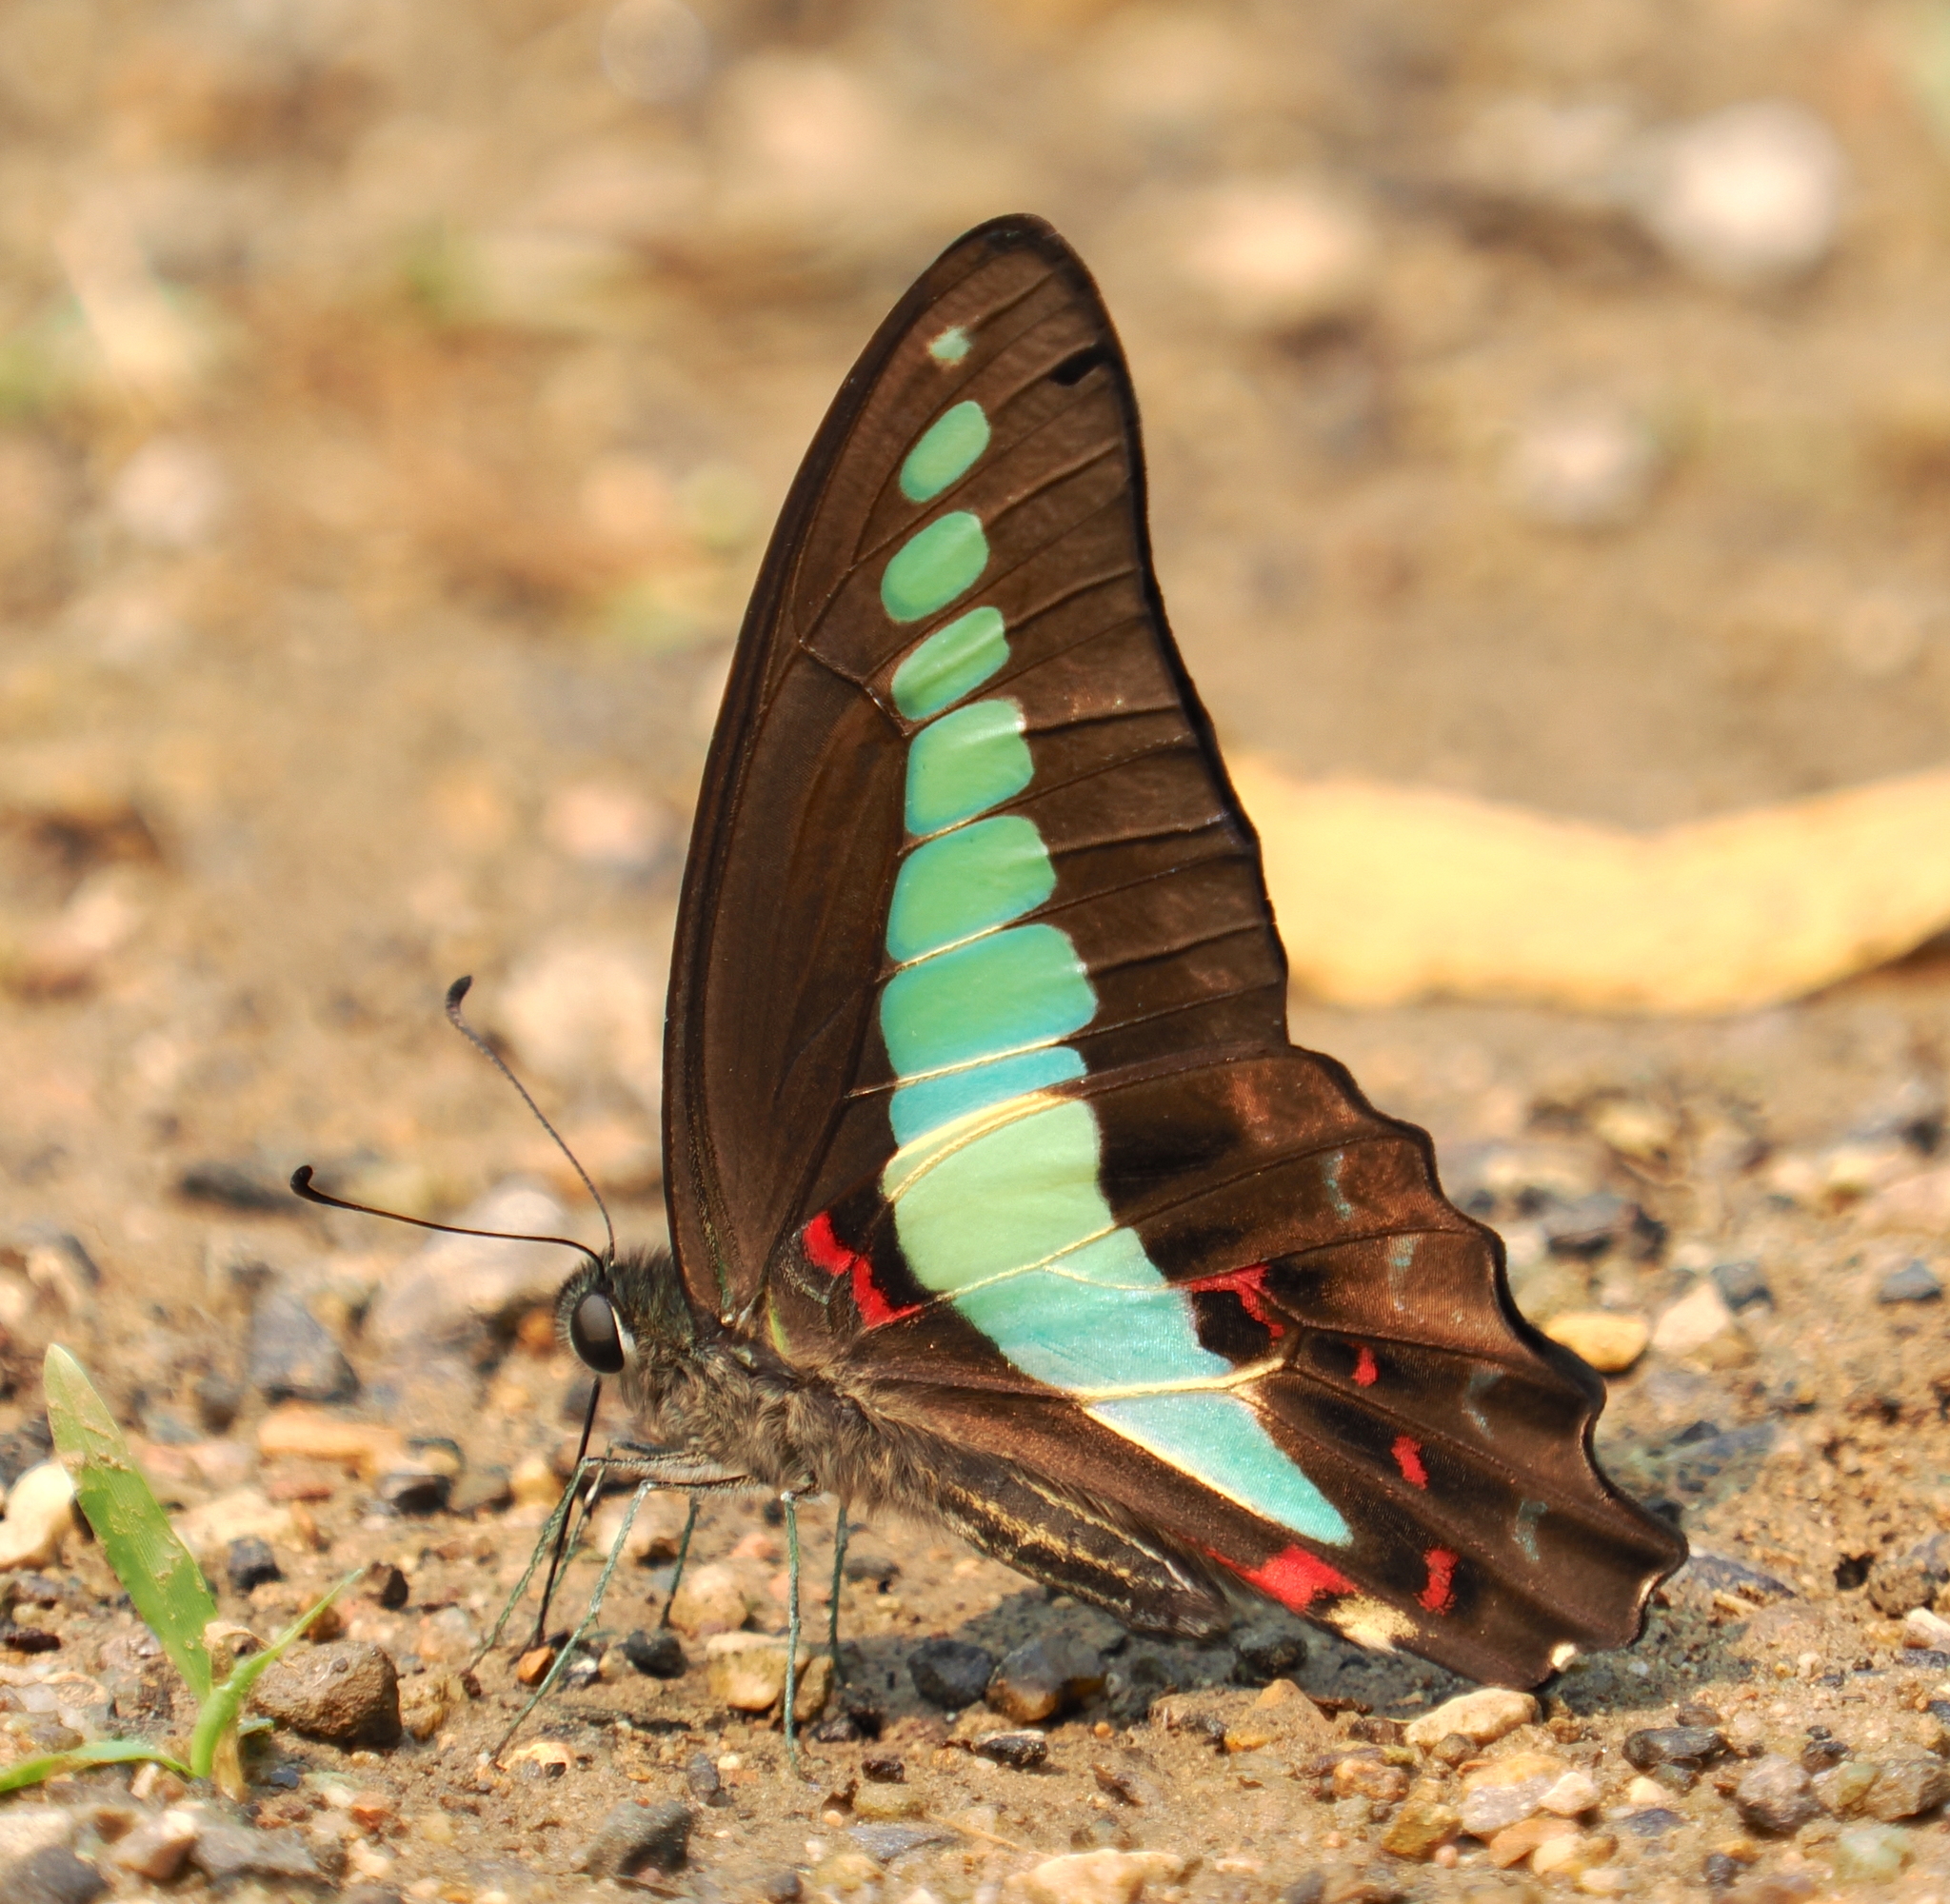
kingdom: Fungi
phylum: Ascomycota
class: Sordariomycetes
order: Microascales
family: Microascaceae
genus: Graphium
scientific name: Graphium sarpedon
